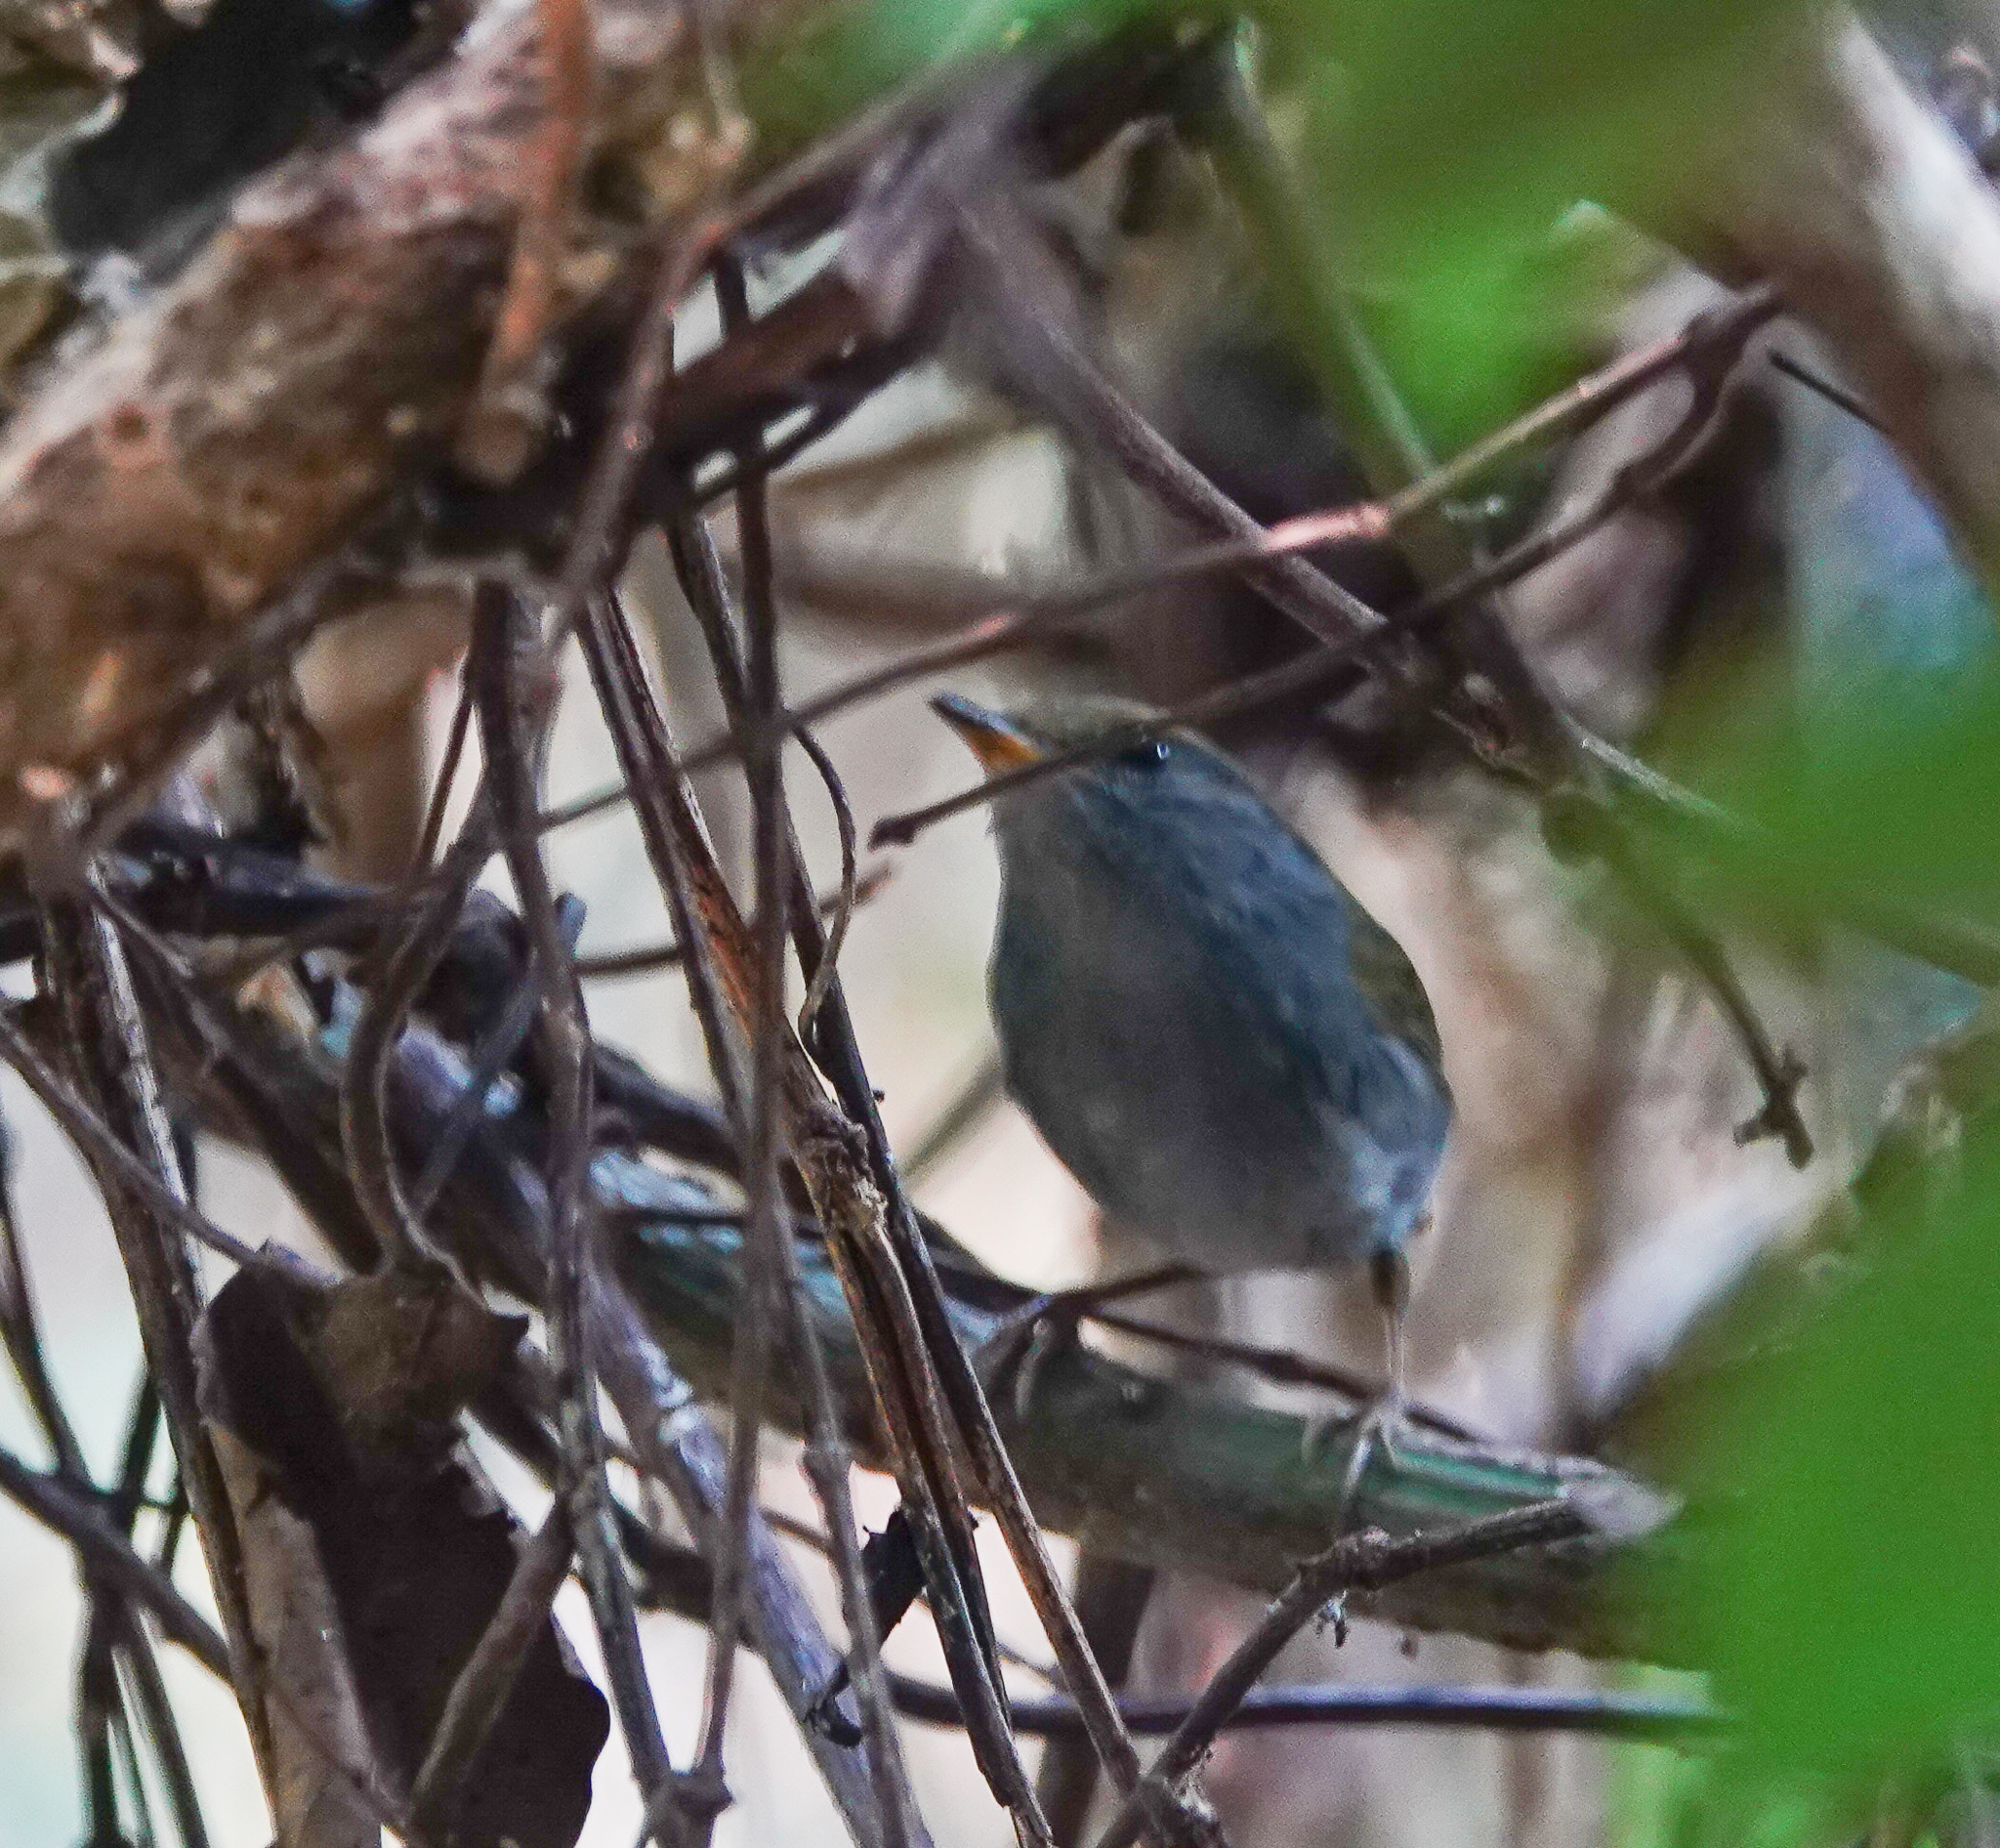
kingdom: Animalia
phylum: Chordata
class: Aves
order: Passeriformes
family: Cettiidae
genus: Tesia
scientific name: Tesia cyaniventer
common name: Grey-bellied tesia
